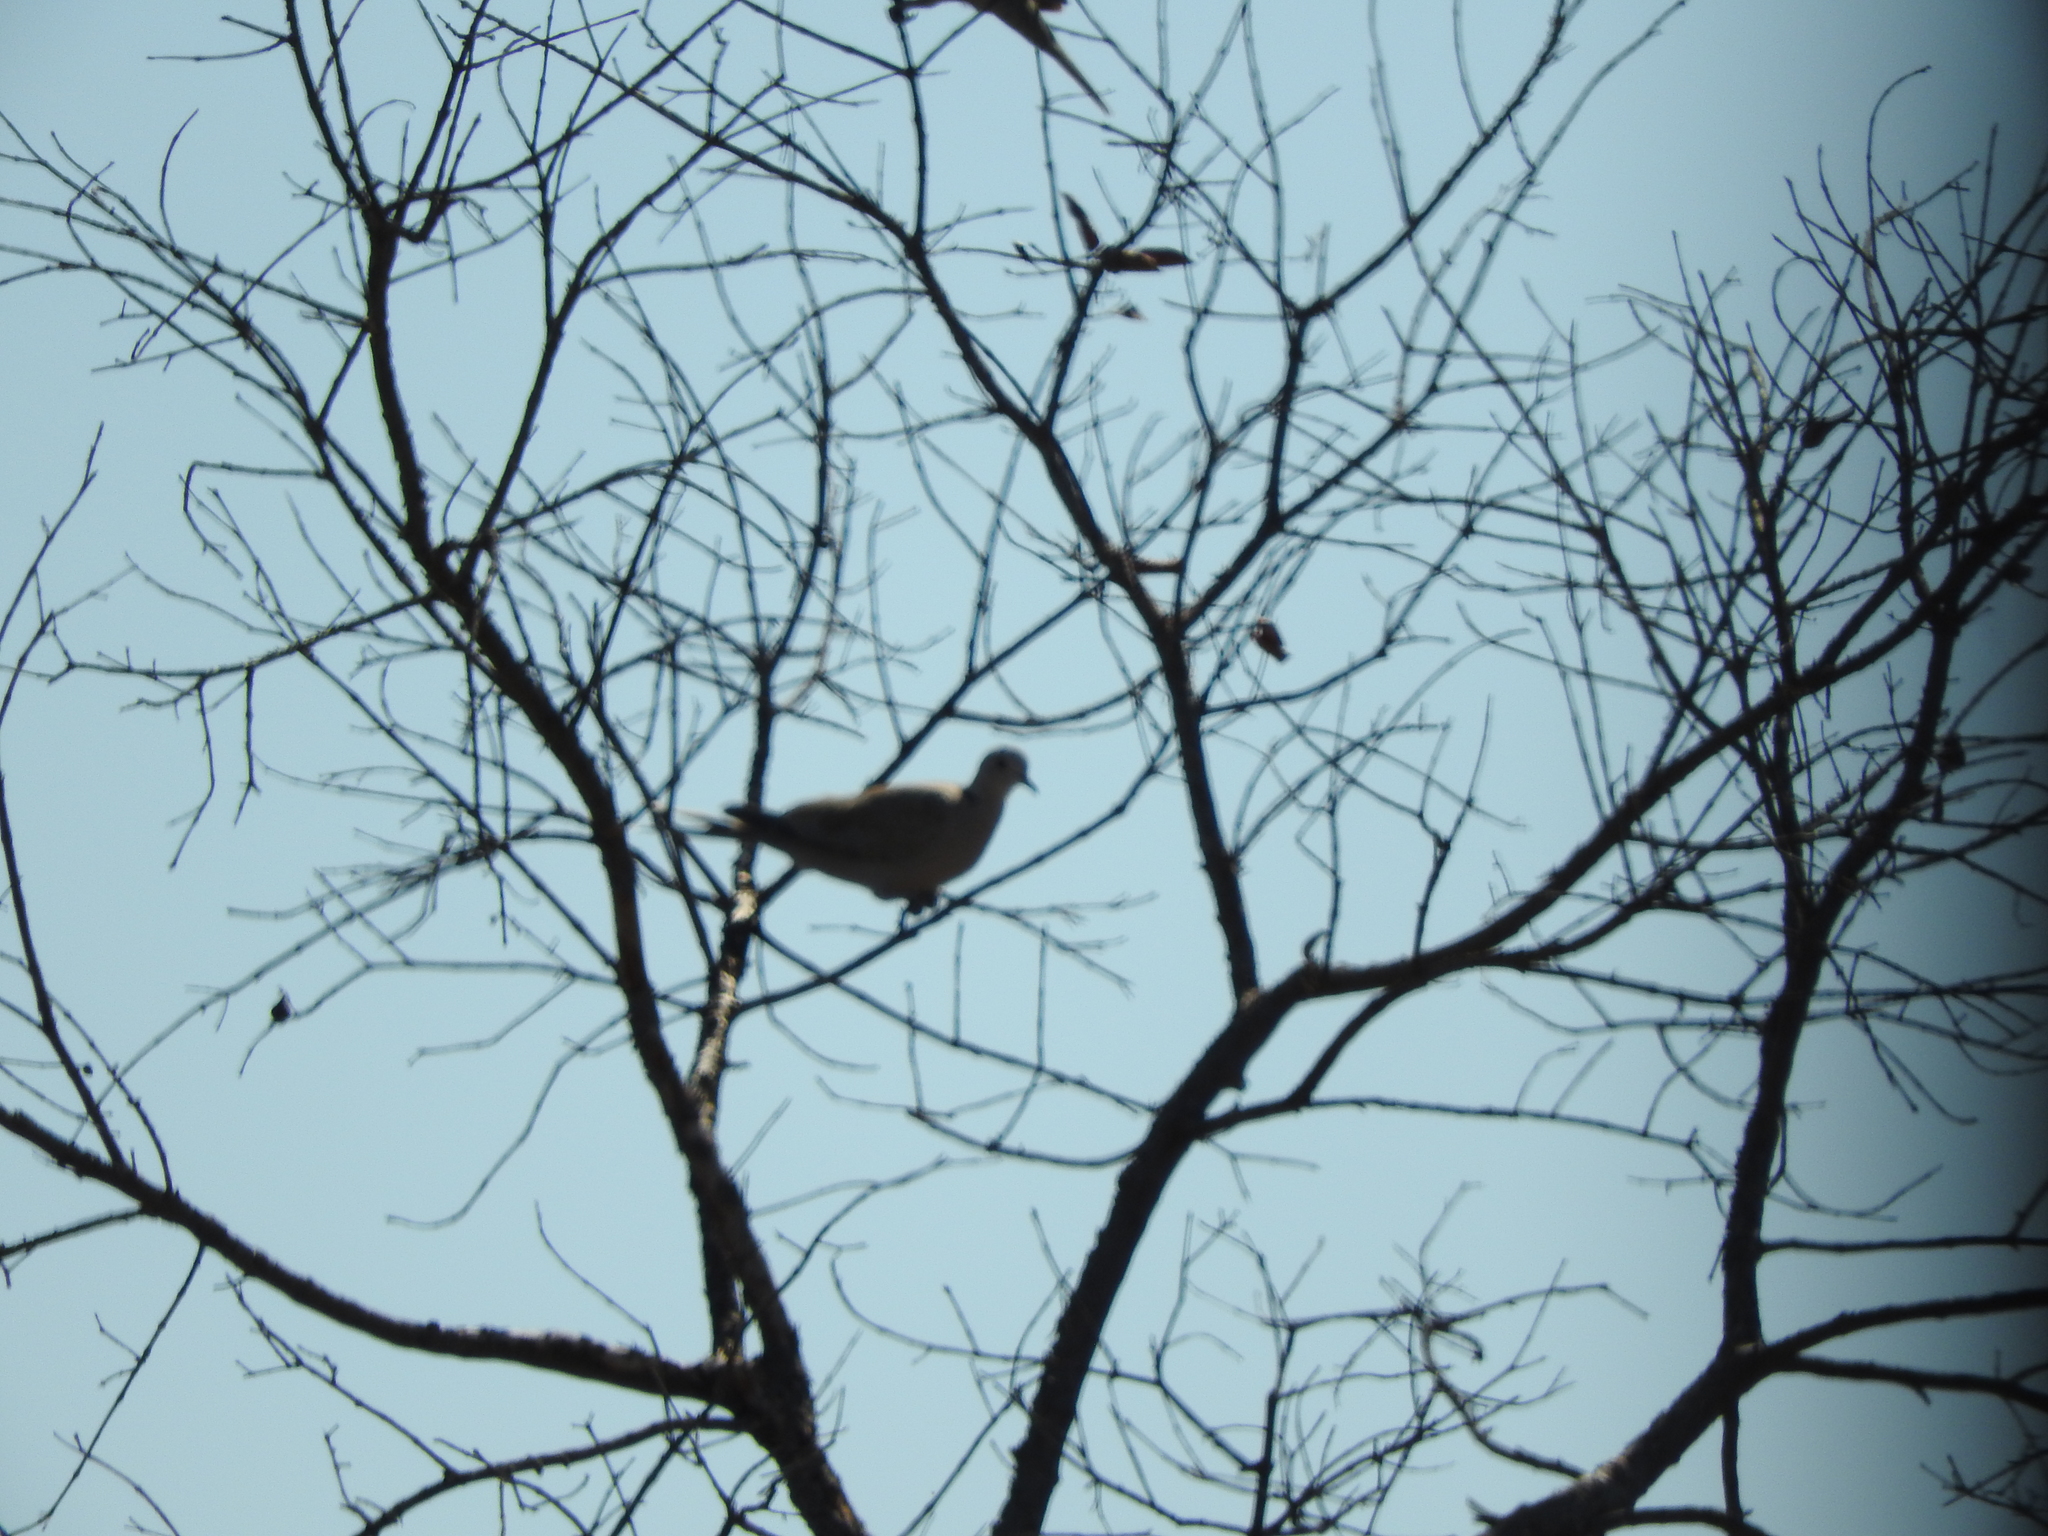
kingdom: Animalia
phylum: Chordata
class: Aves
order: Columbiformes
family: Columbidae
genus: Streptopelia
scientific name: Streptopelia decaocto
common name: Eurasian collared dove
